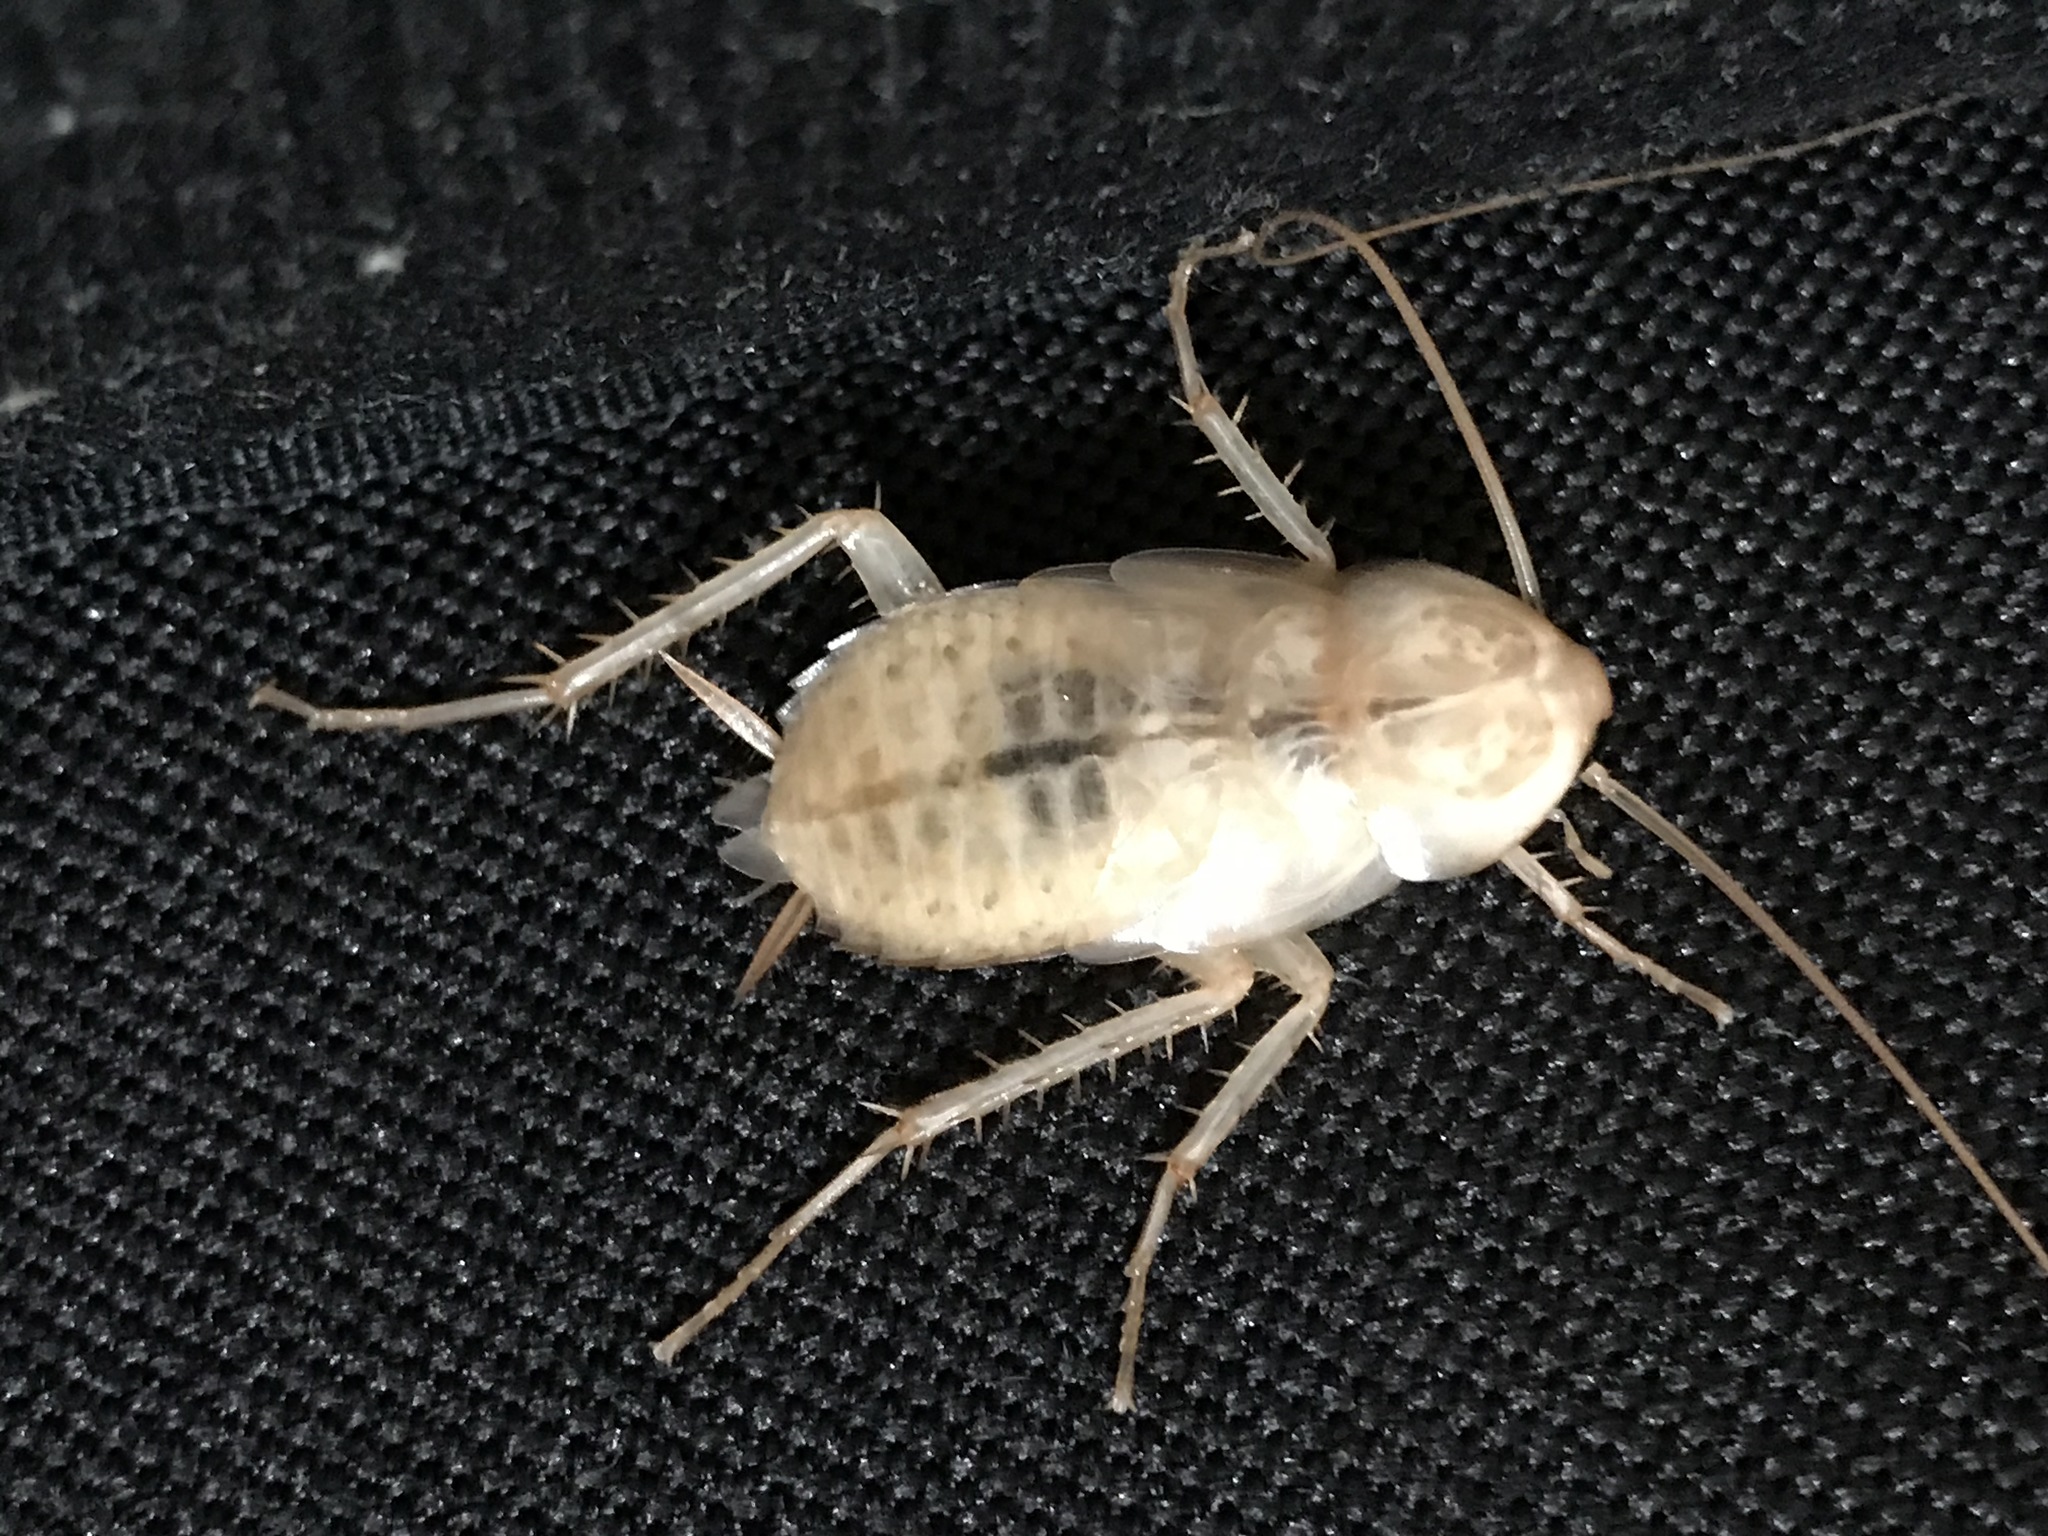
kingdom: Animalia
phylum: Arthropoda
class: Insecta
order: Blattodea
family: Blattidae
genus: Periplaneta
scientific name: Periplaneta americana
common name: American cockroach
